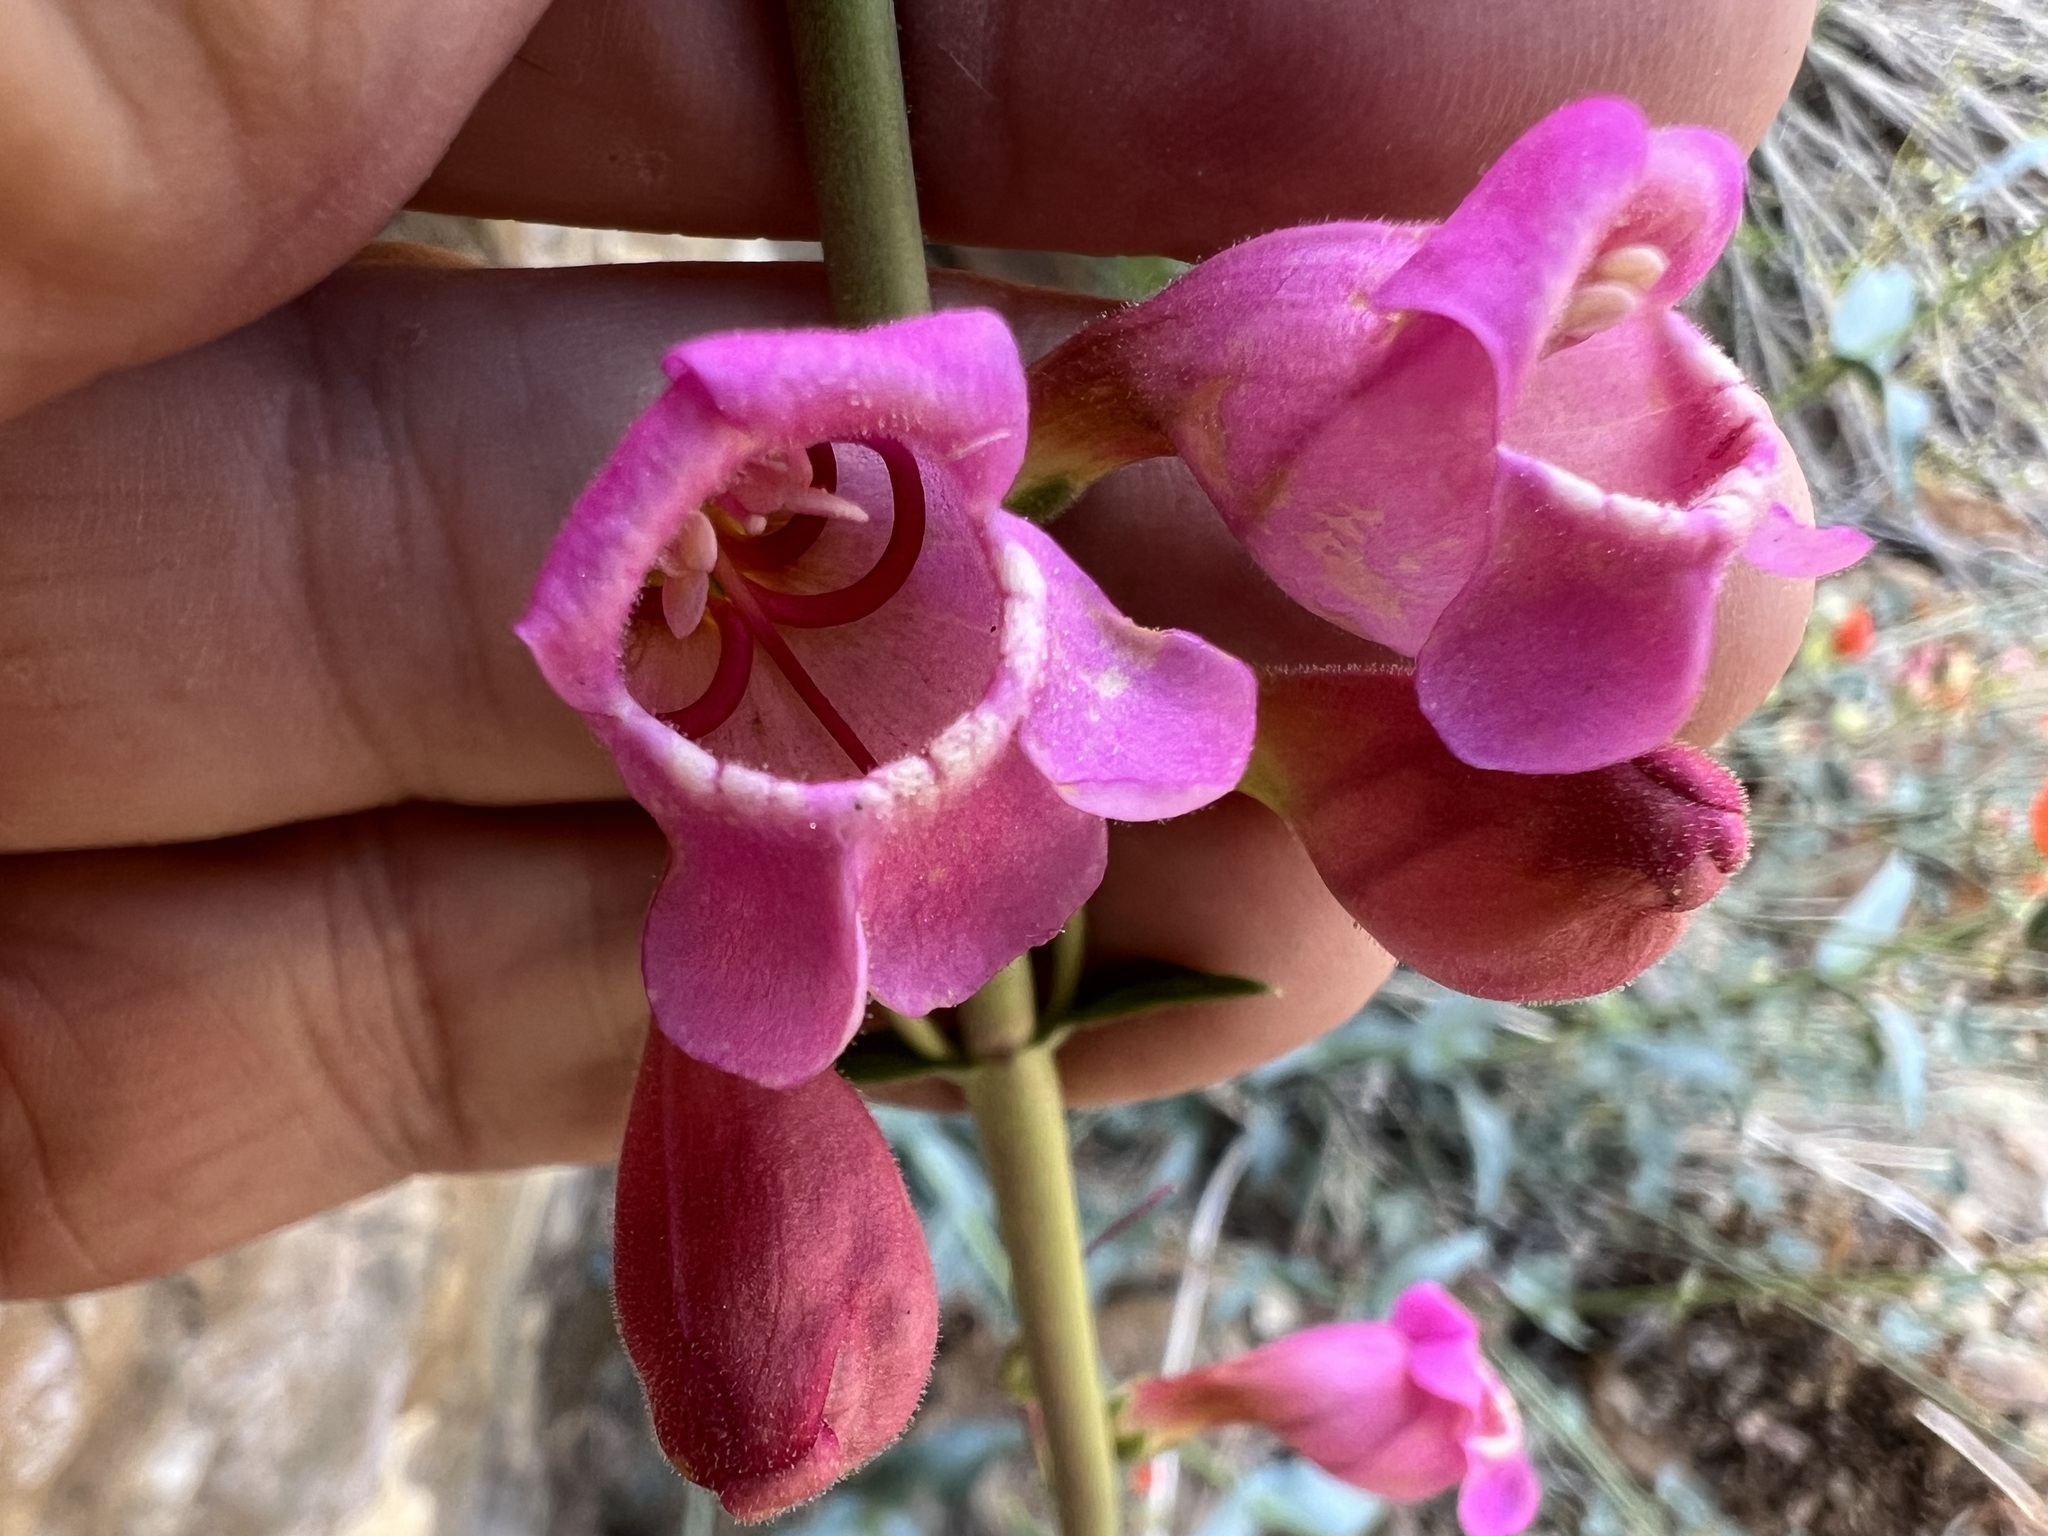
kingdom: Plantae
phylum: Tracheophyta
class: Magnoliopsida
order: Lamiales
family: Plantaginaceae
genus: Penstemon
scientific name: Penstemon floridus
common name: Panamint penstemon
